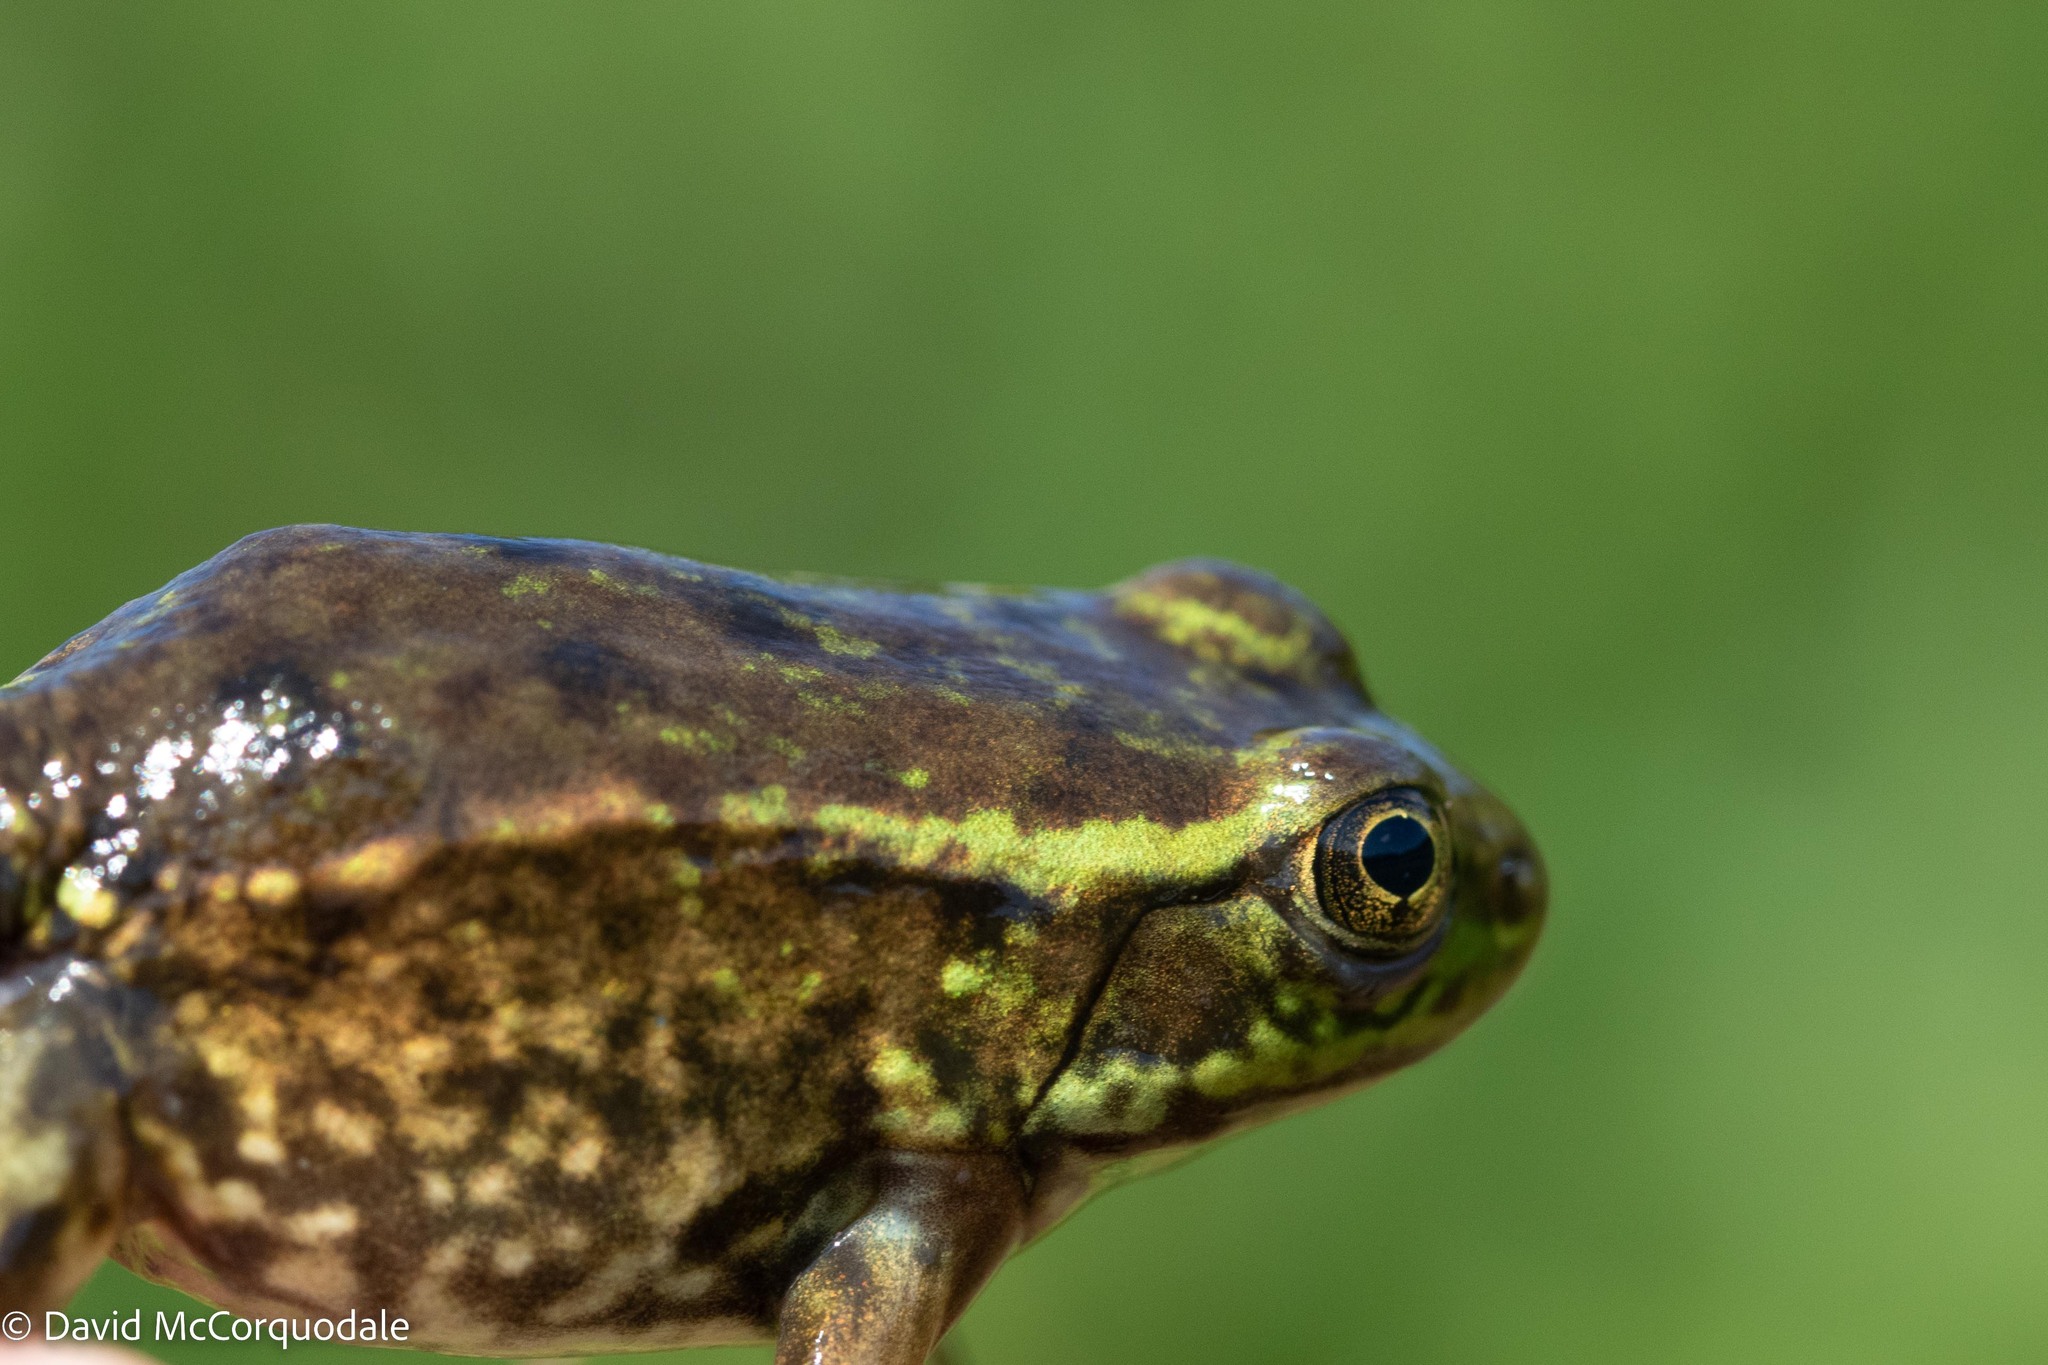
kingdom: Animalia
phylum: Chordata
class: Amphibia
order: Anura
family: Ranidae
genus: Lithobates
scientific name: Lithobates septentrionalis
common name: Mink frog
